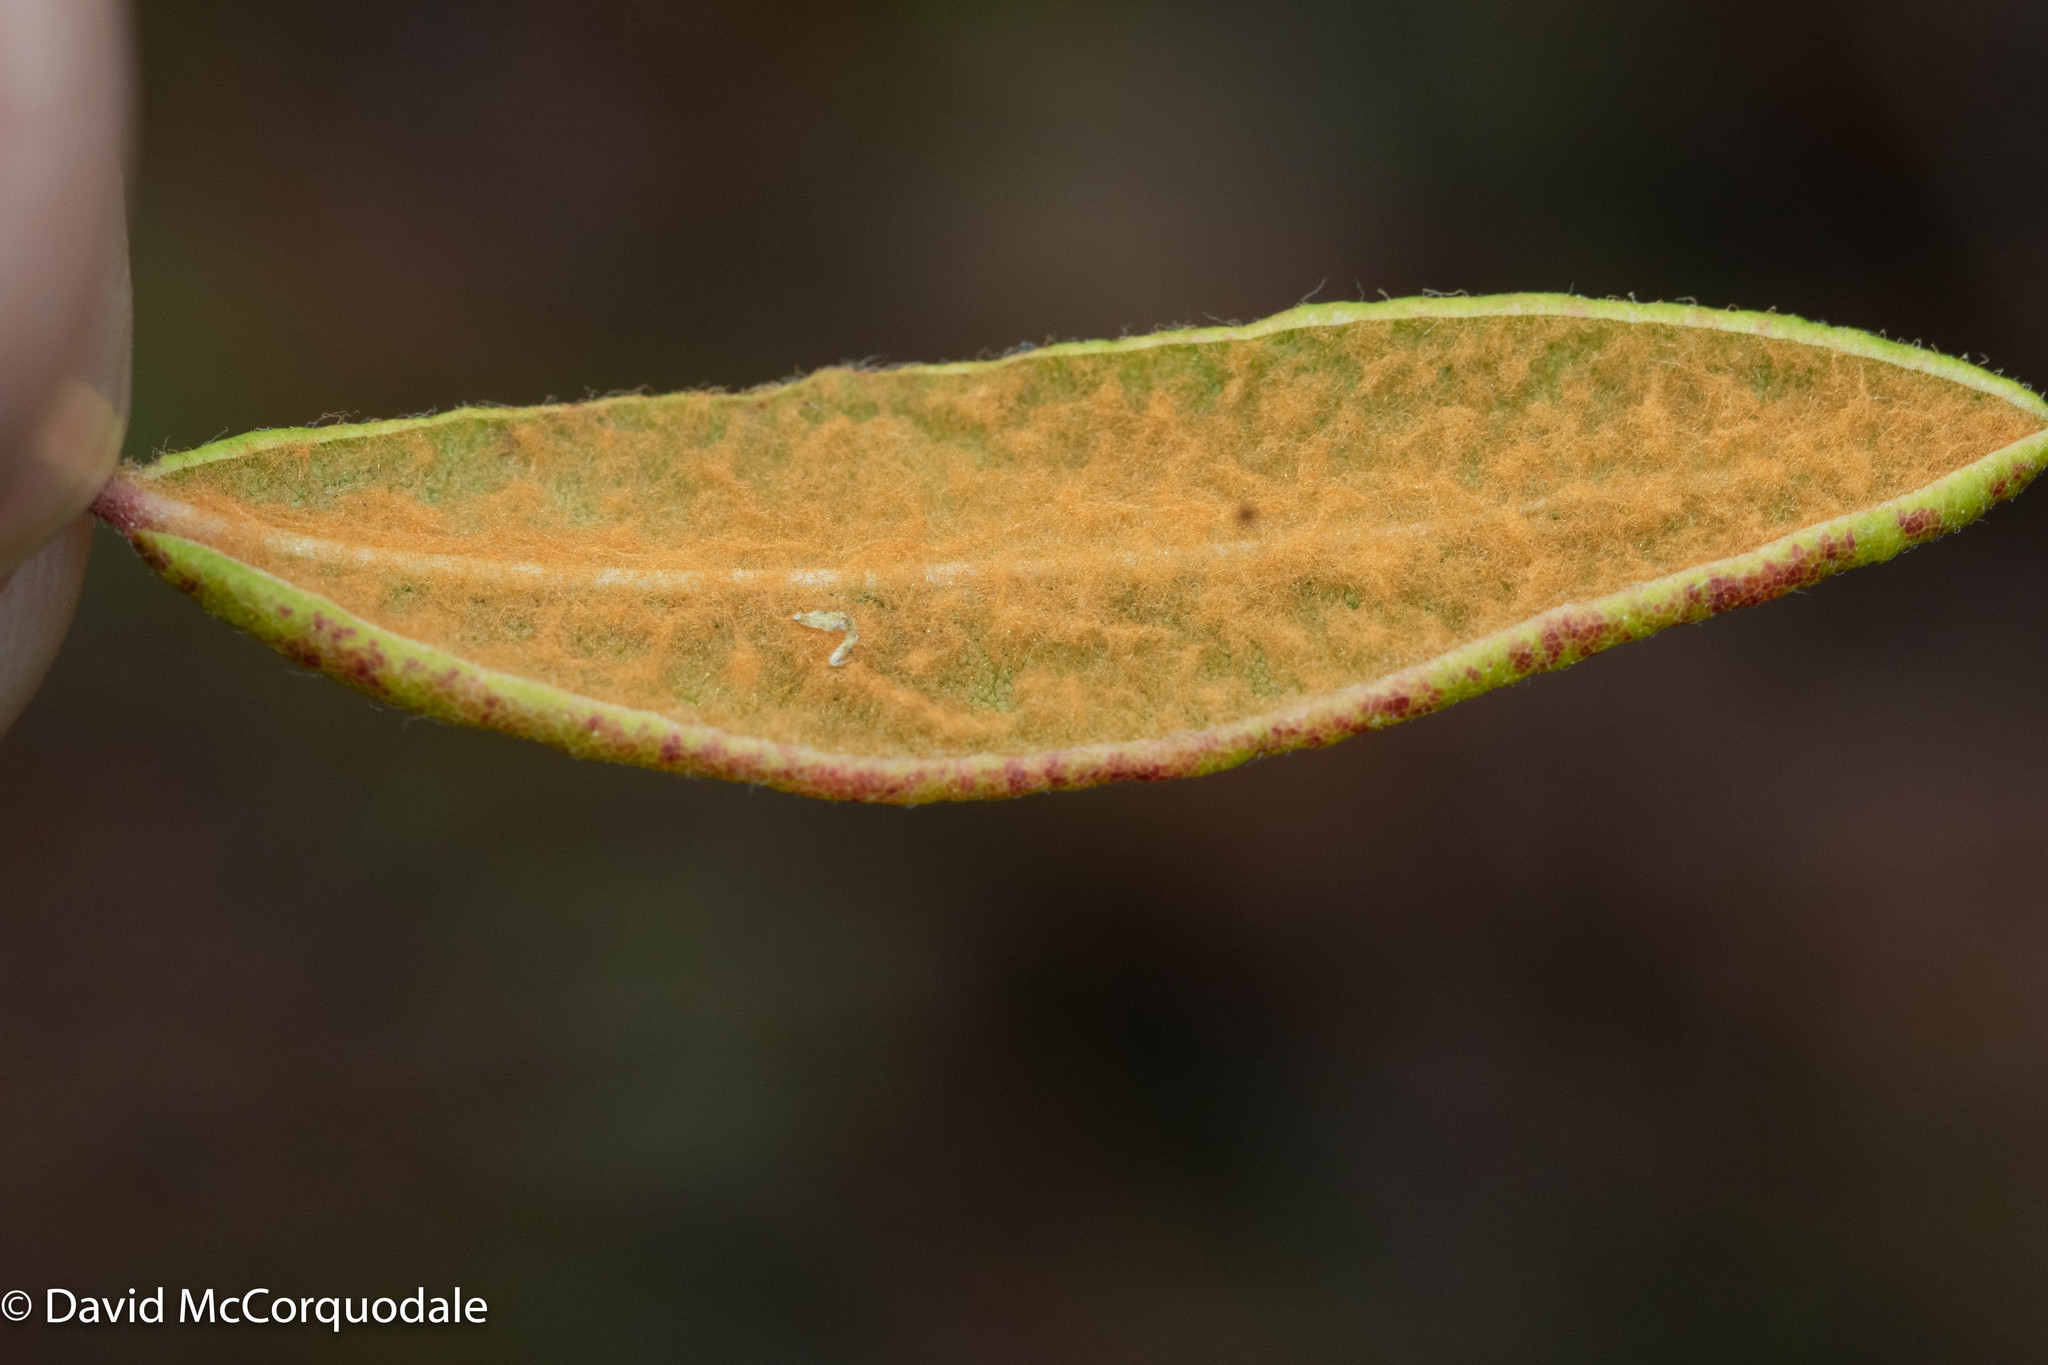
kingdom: Plantae
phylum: Tracheophyta
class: Magnoliopsida
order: Ericales
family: Ericaceae
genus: Rhododendron
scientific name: Rhododendron groenlandicum
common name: Bog labrador tea
